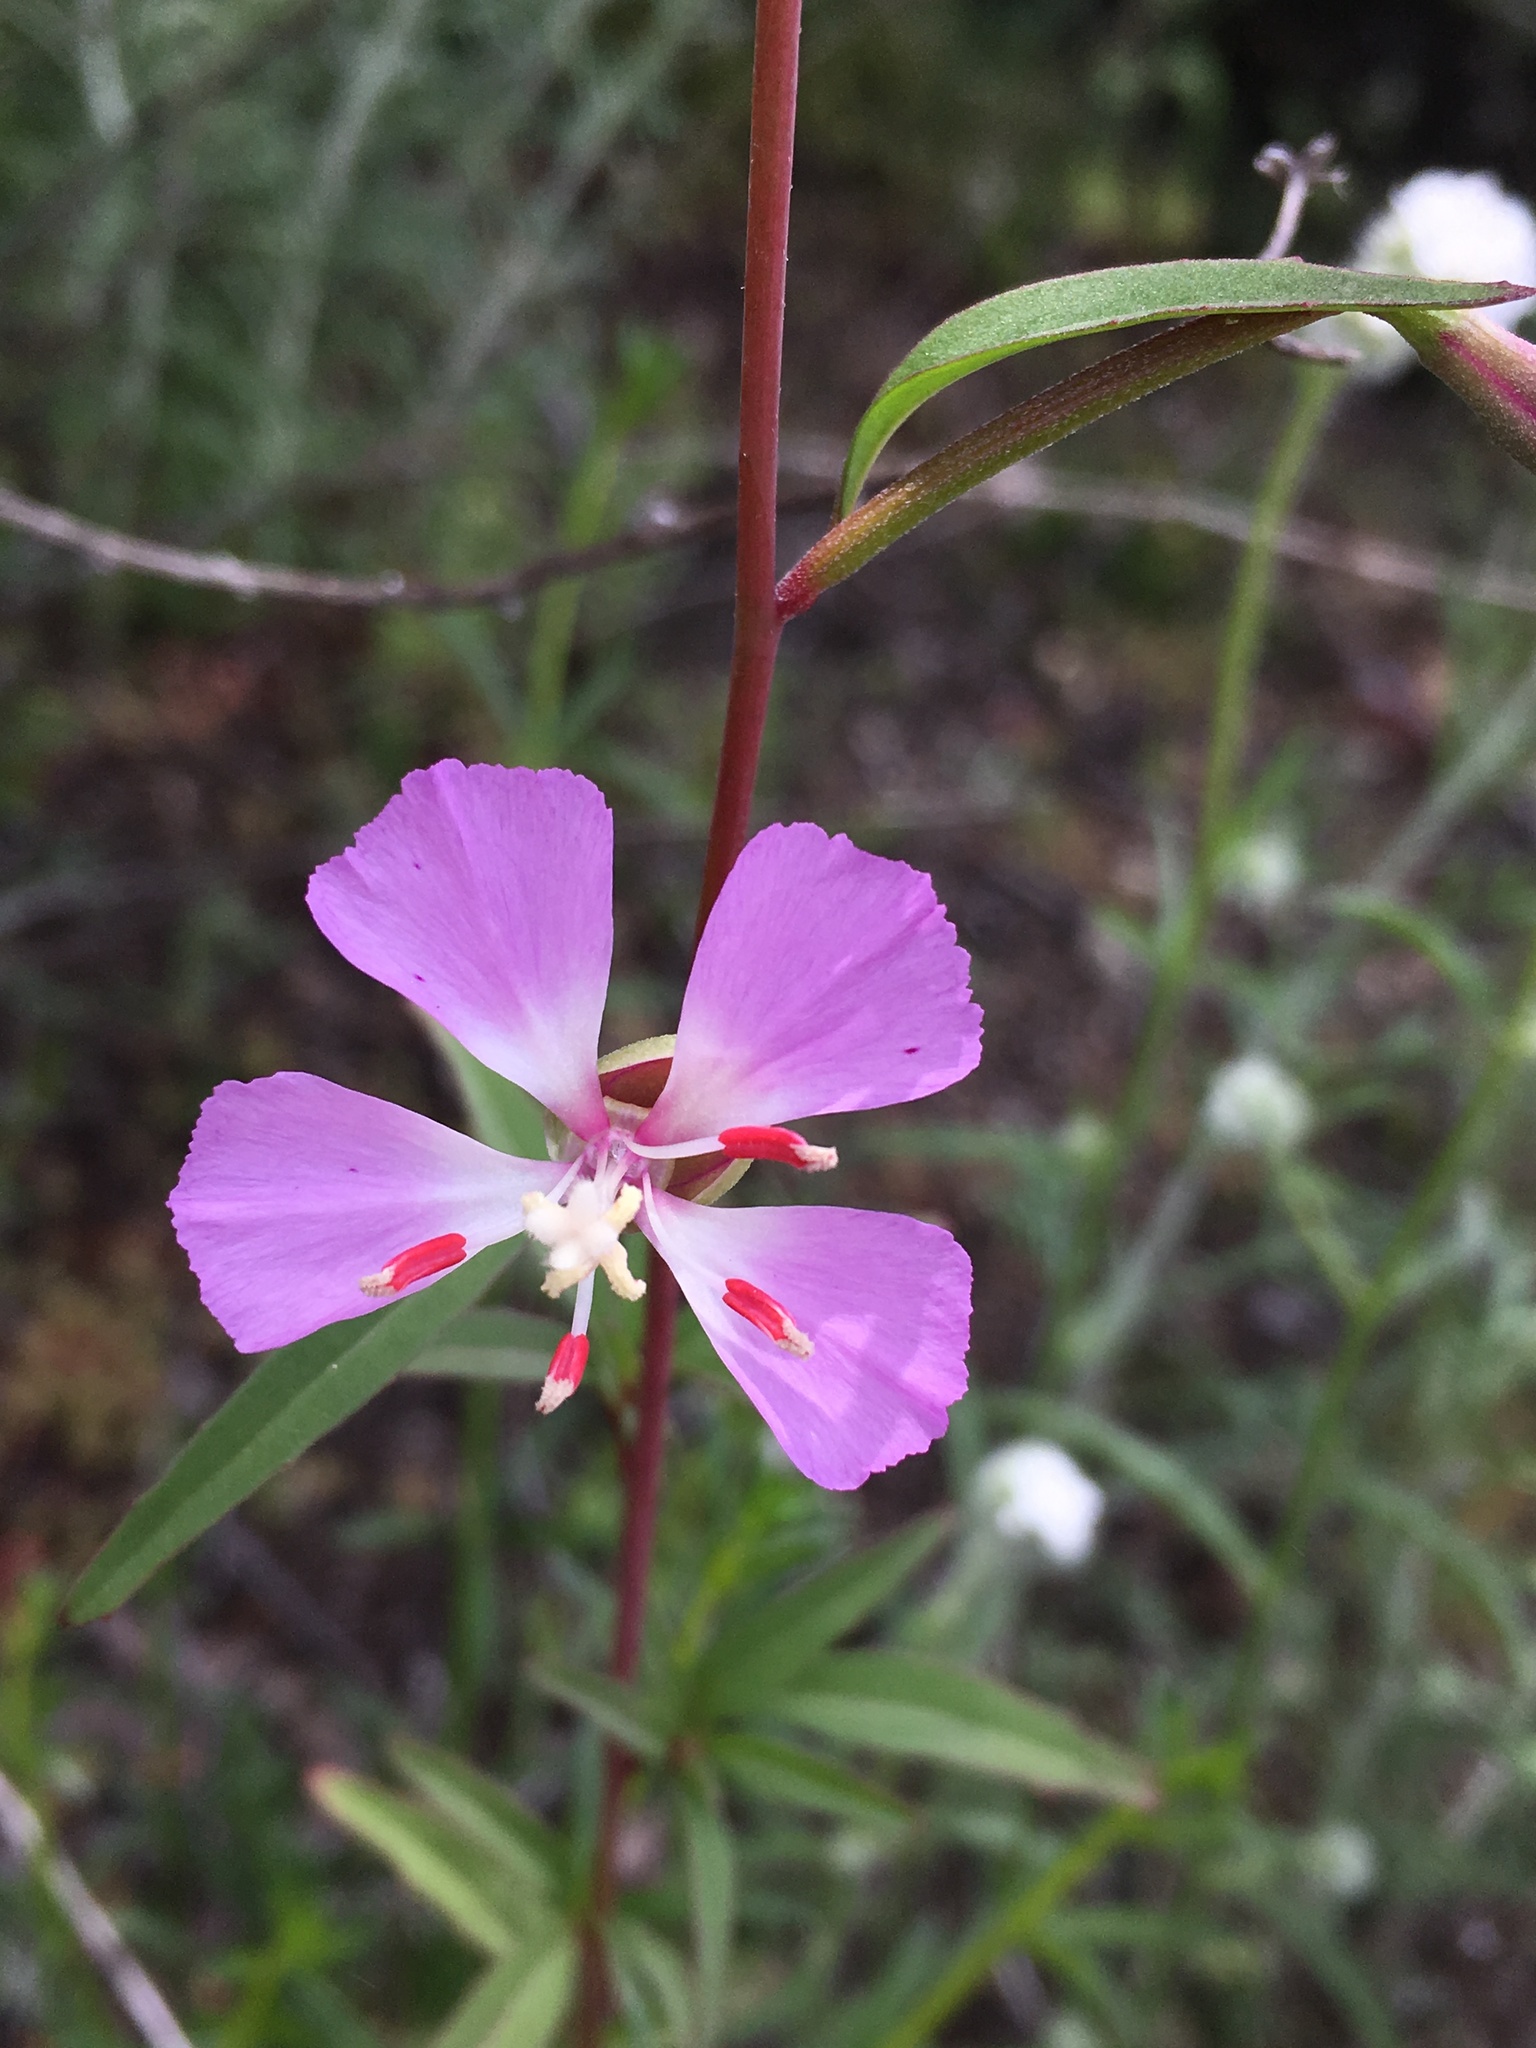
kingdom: Plantae
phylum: Tracheophyta
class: Magnoliopsida
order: Myrtales
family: Onagraceae
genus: Clarkia
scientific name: Clarkia delicata
